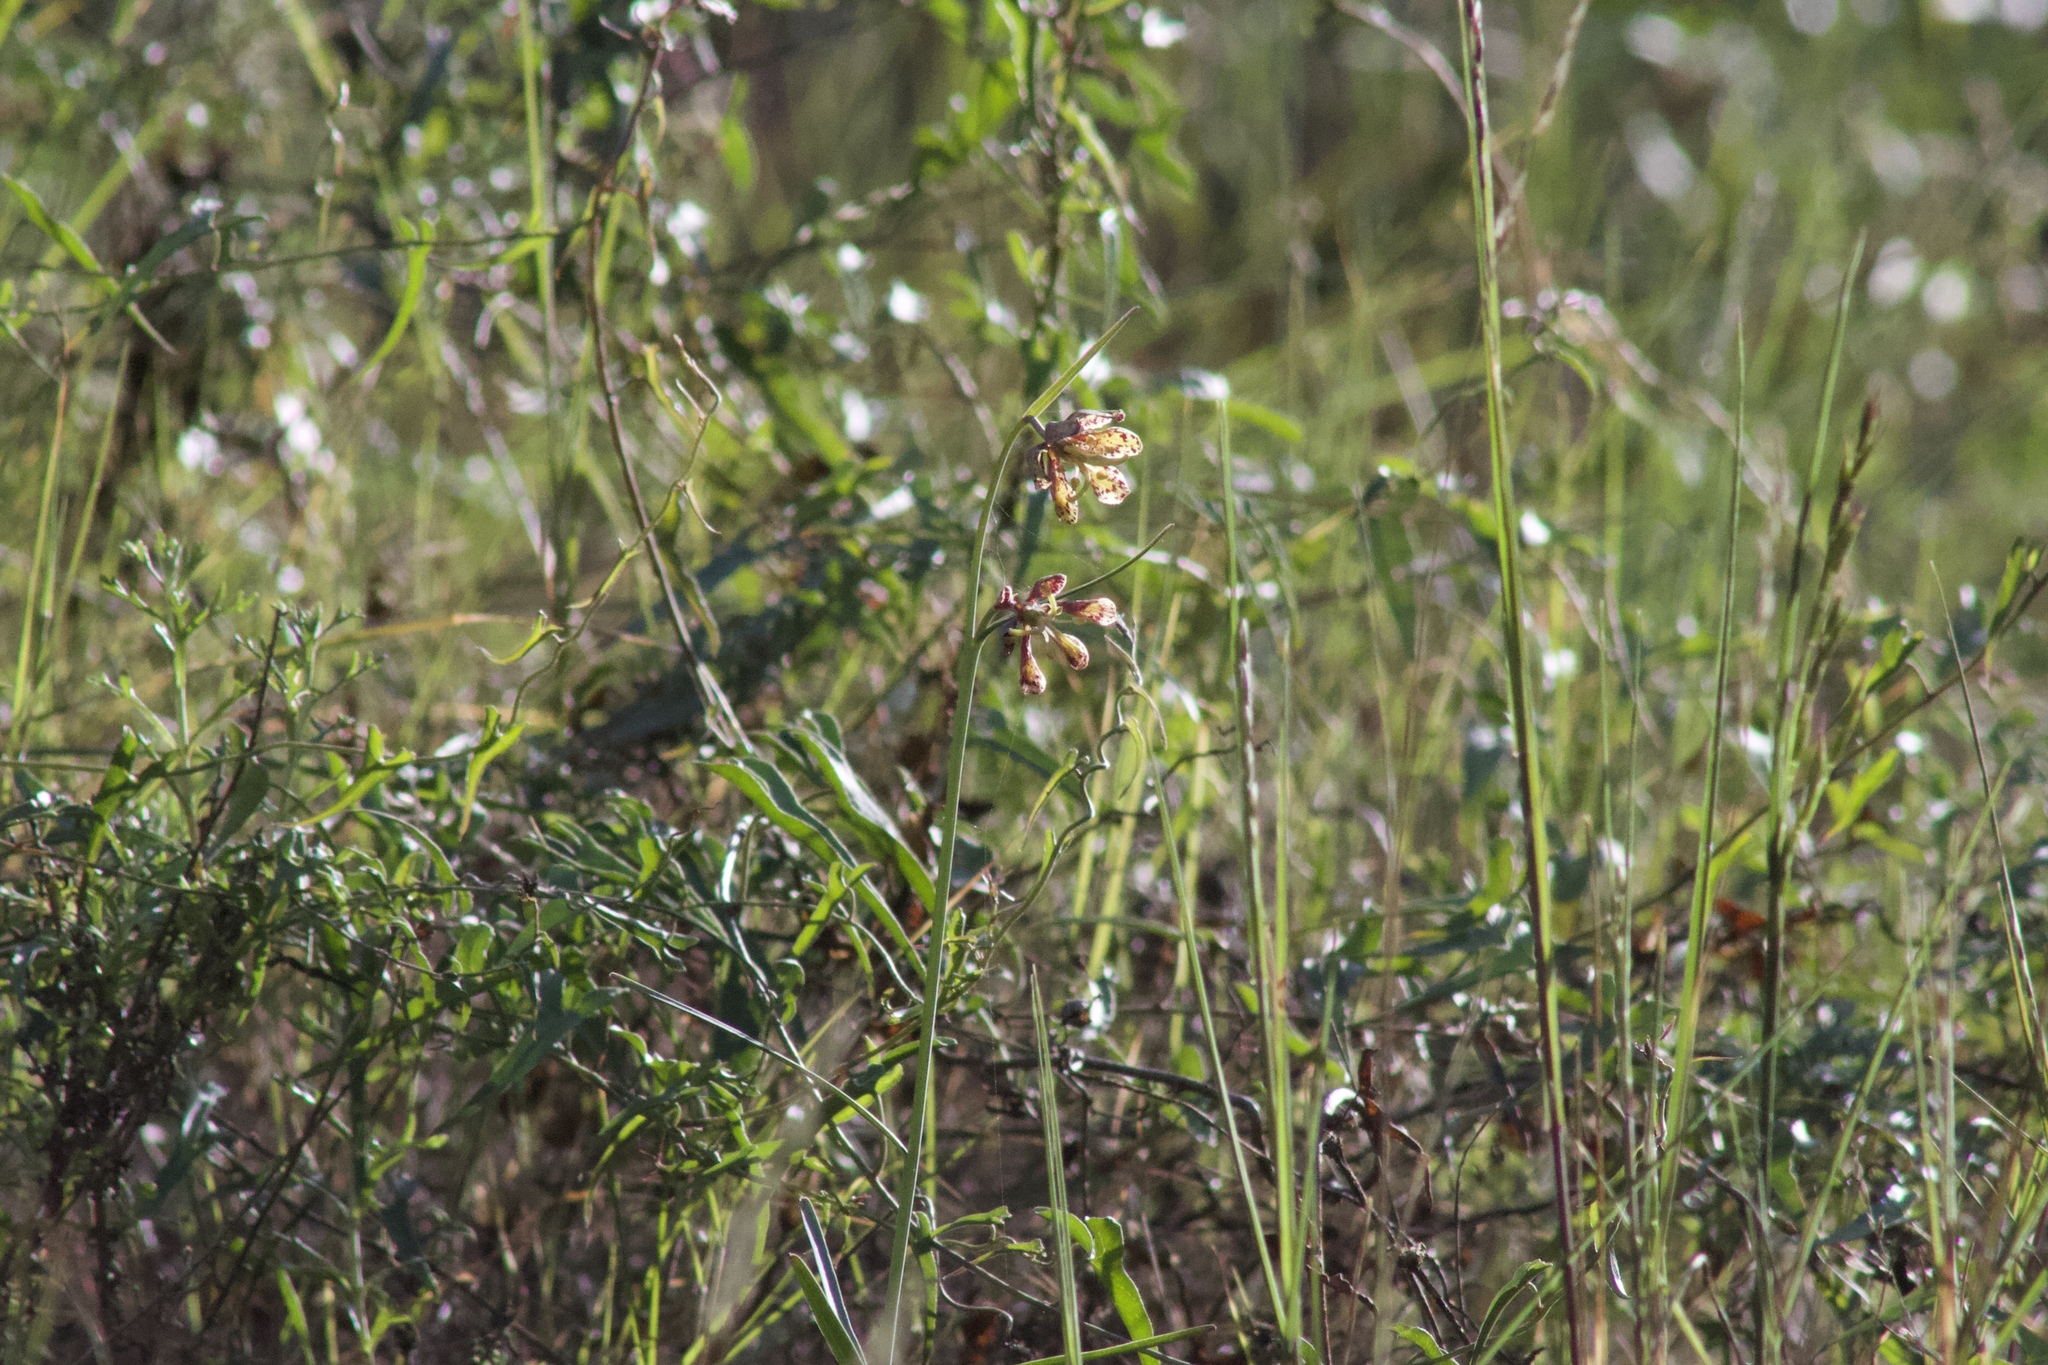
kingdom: Plantae
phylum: Tracheophyta
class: Liliopsida
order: Liliales
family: Liliaceae
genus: Fritillaria
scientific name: Fritillaria ojaiensis
